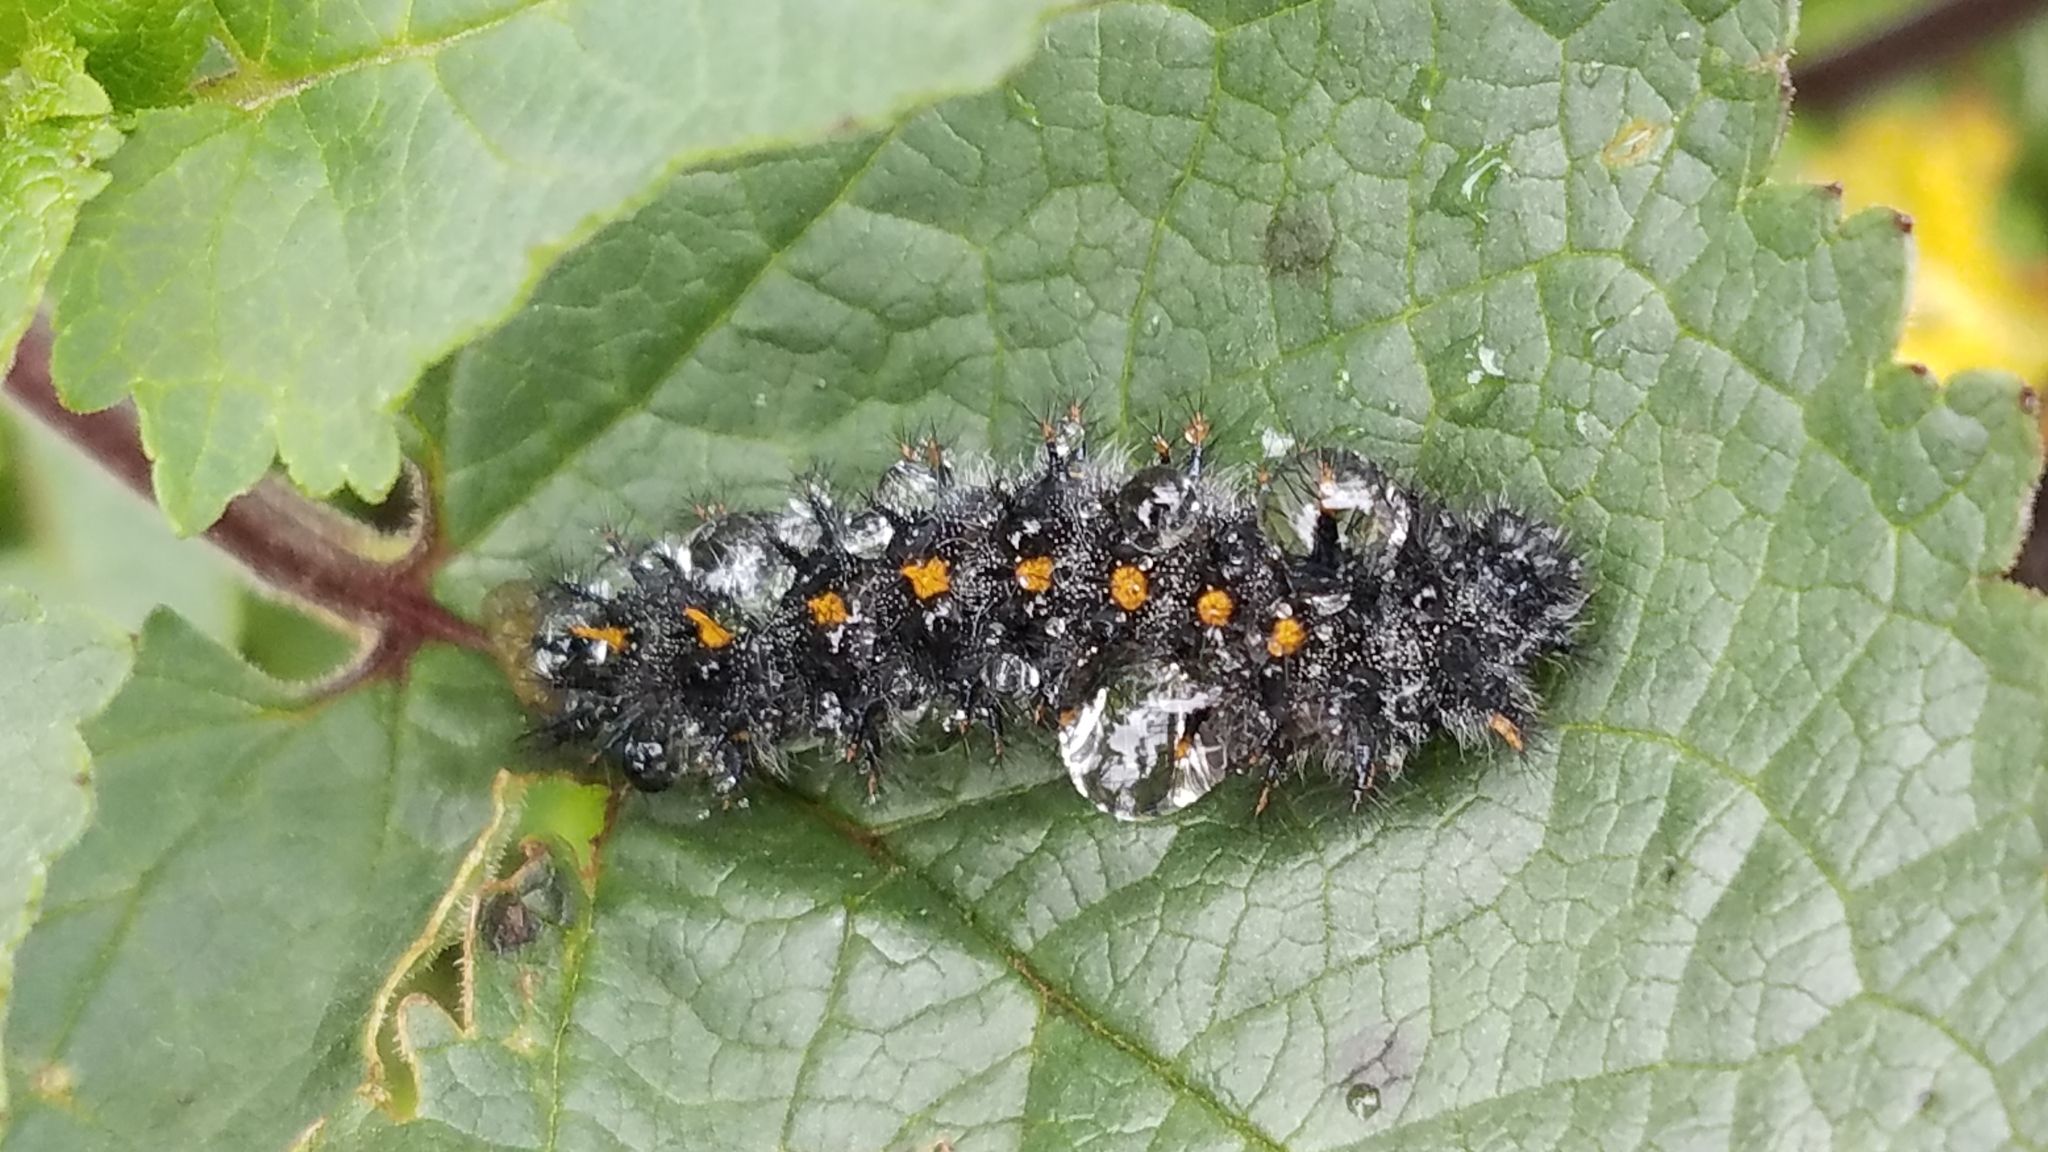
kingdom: Animalia
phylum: Arthropoda
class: Insecta
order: Lepidoptera
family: Nymphalidae
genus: Occidryas
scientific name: Occidryas chalcedona
